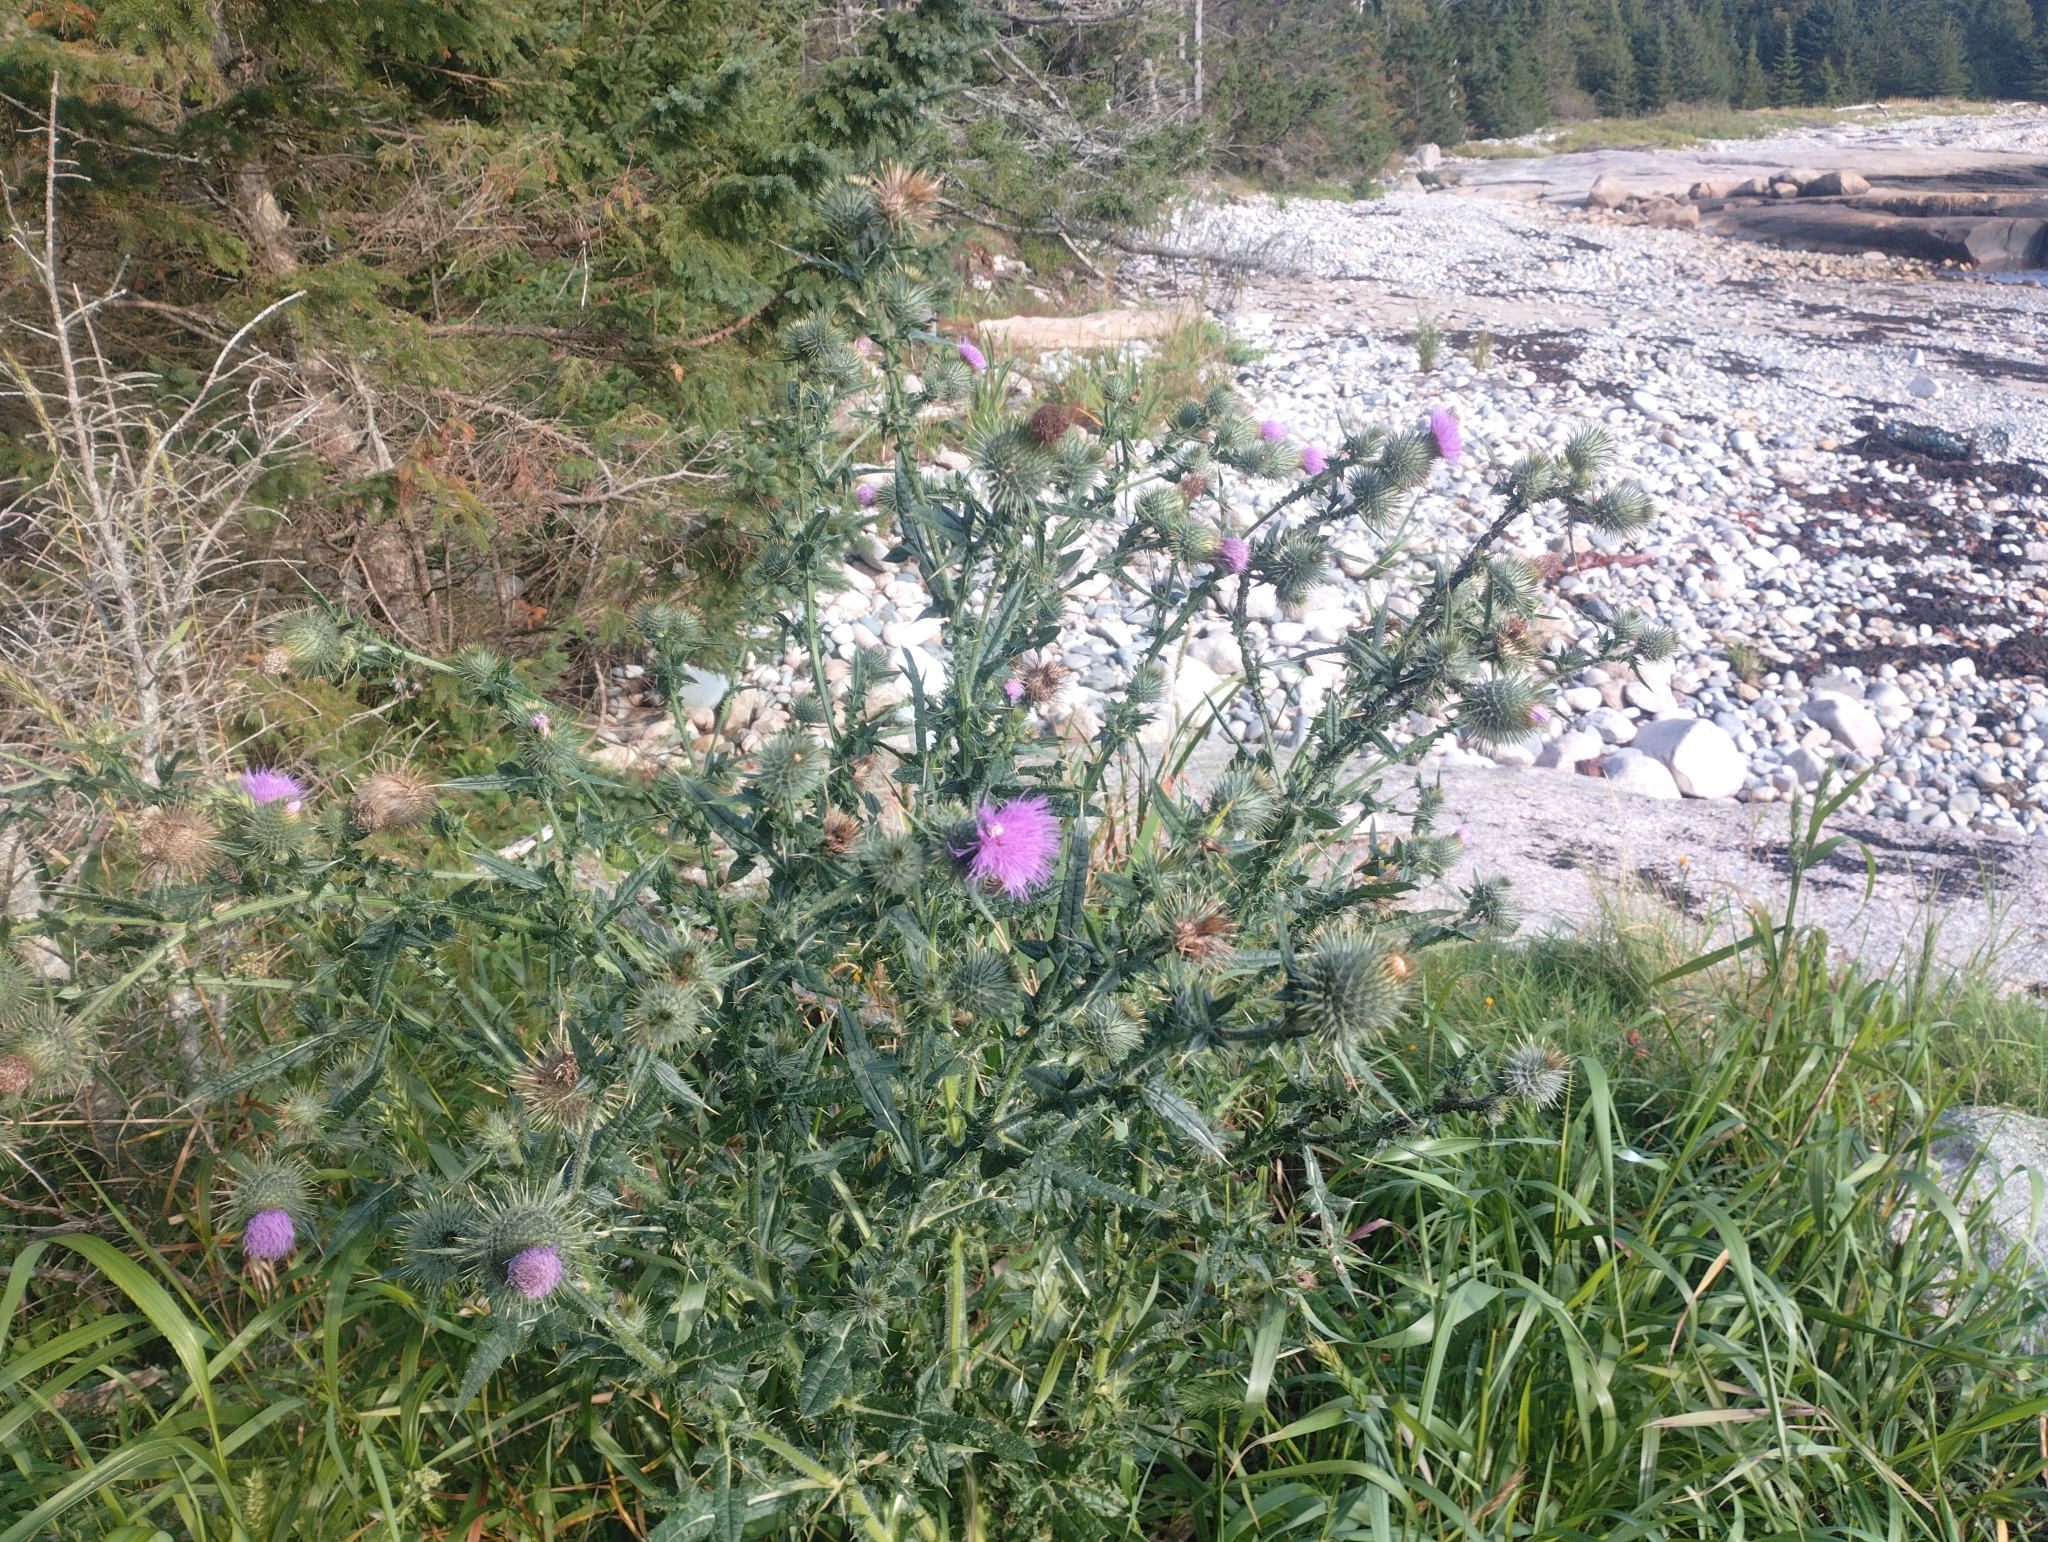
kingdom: Plantae
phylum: Tracheophyta
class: Magnoliopsida
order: Asterales
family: Asteraceae
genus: Cirsium
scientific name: Cirsium vulgare
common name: Bull thistle
